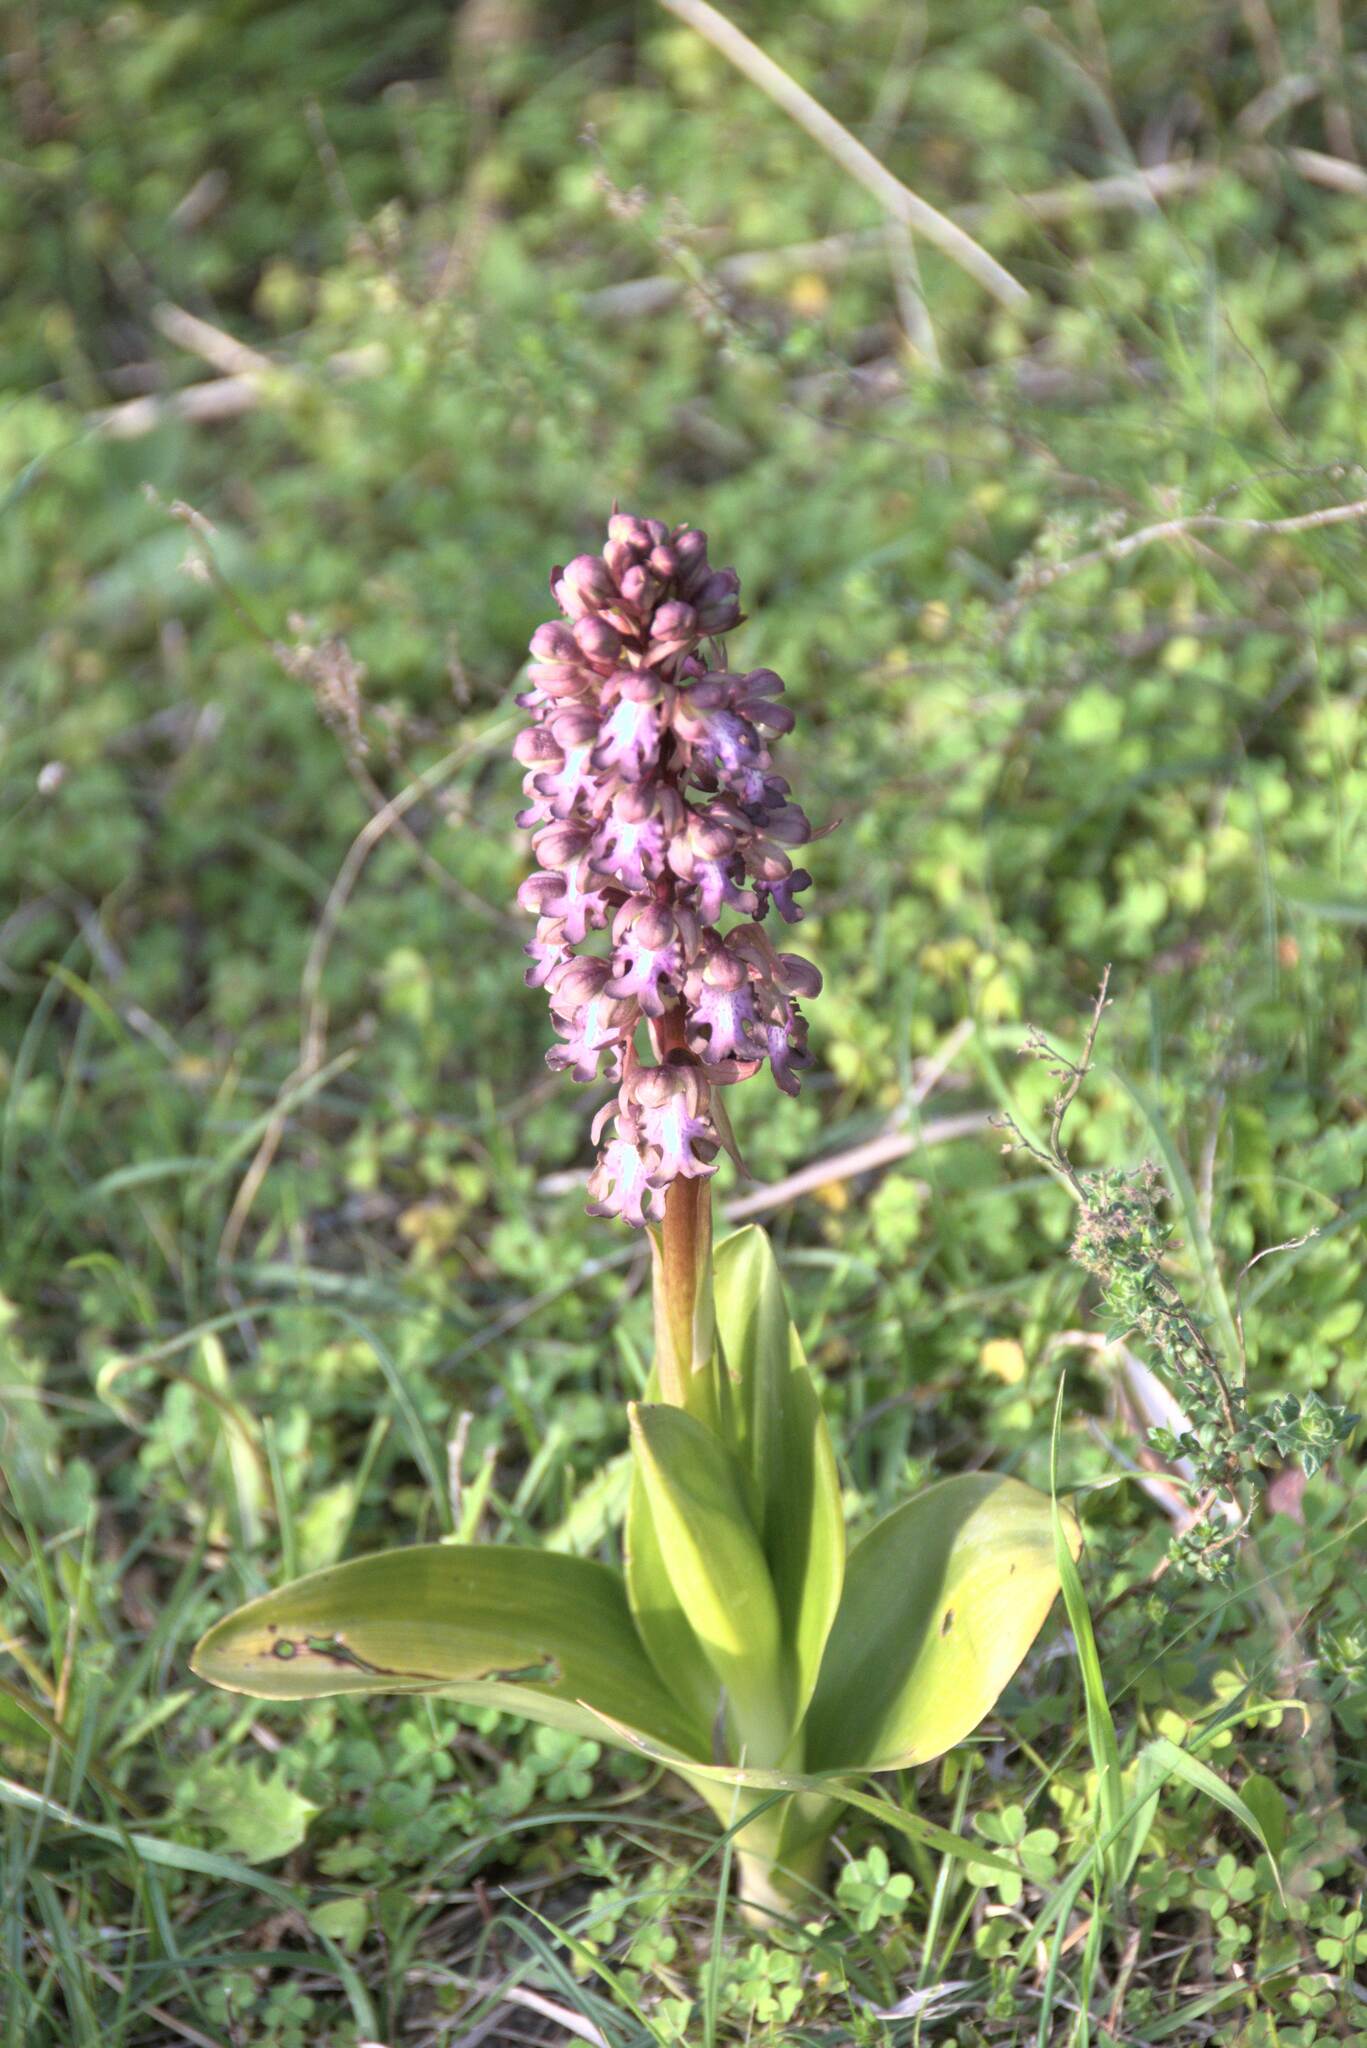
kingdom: Plantae
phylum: Tracheophyta
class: Liliopsida
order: Asparagales
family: Orchidaceae
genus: Himantoglossum
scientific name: Himantoglossum robertianum
